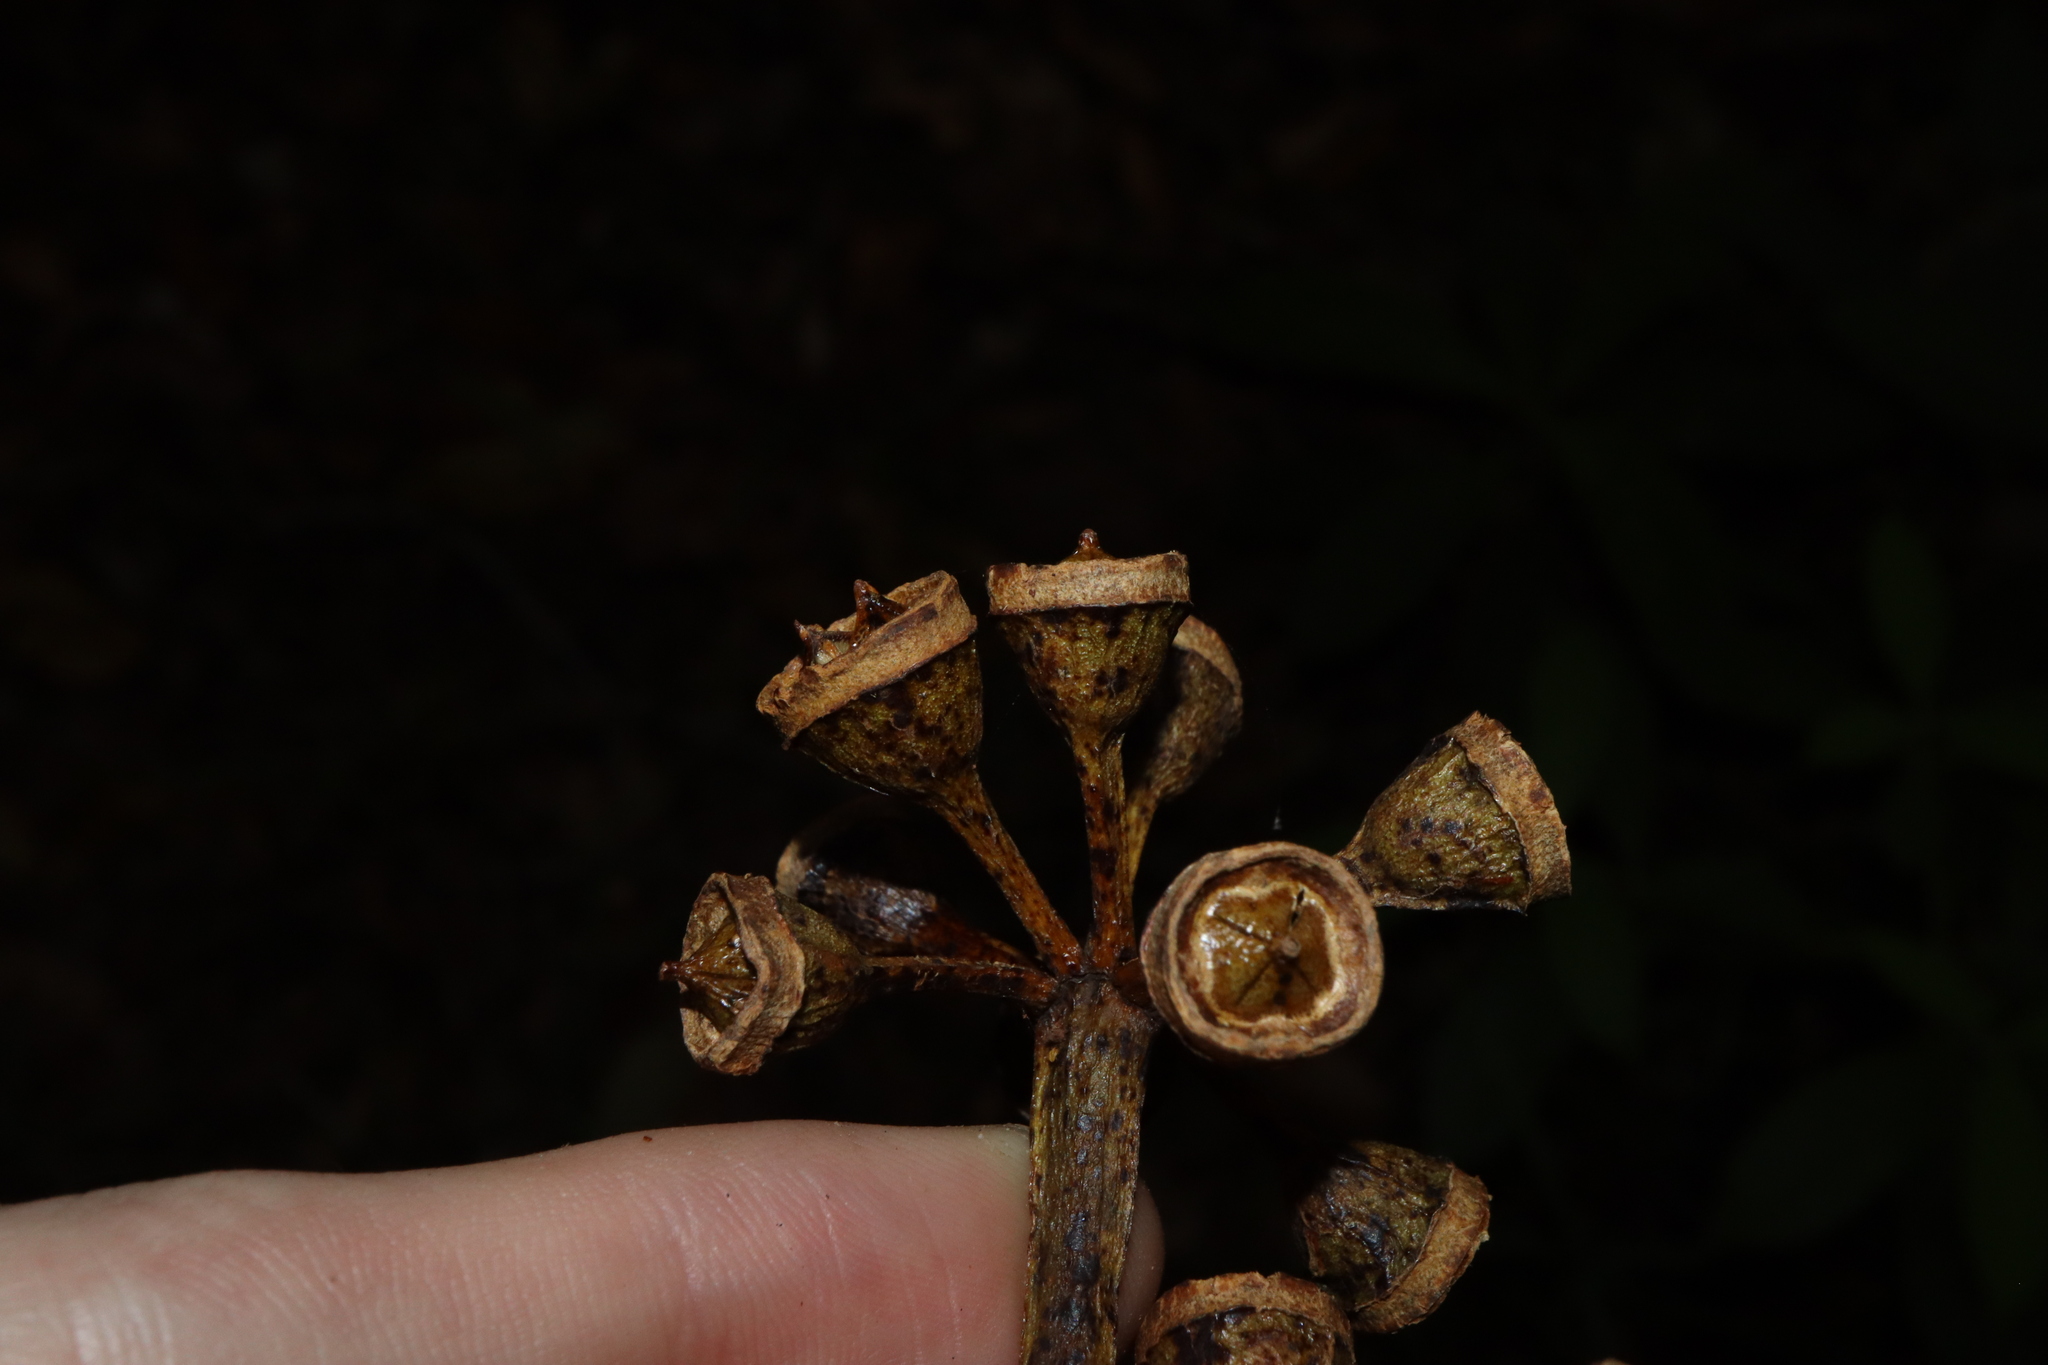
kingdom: Plantae
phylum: Tracheophyta
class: Magnoliopsida
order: Myrtales
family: Myrtaceae
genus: Eucalyptus
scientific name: Eucalyptus pellita
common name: Large-fruited-red-mahogany
